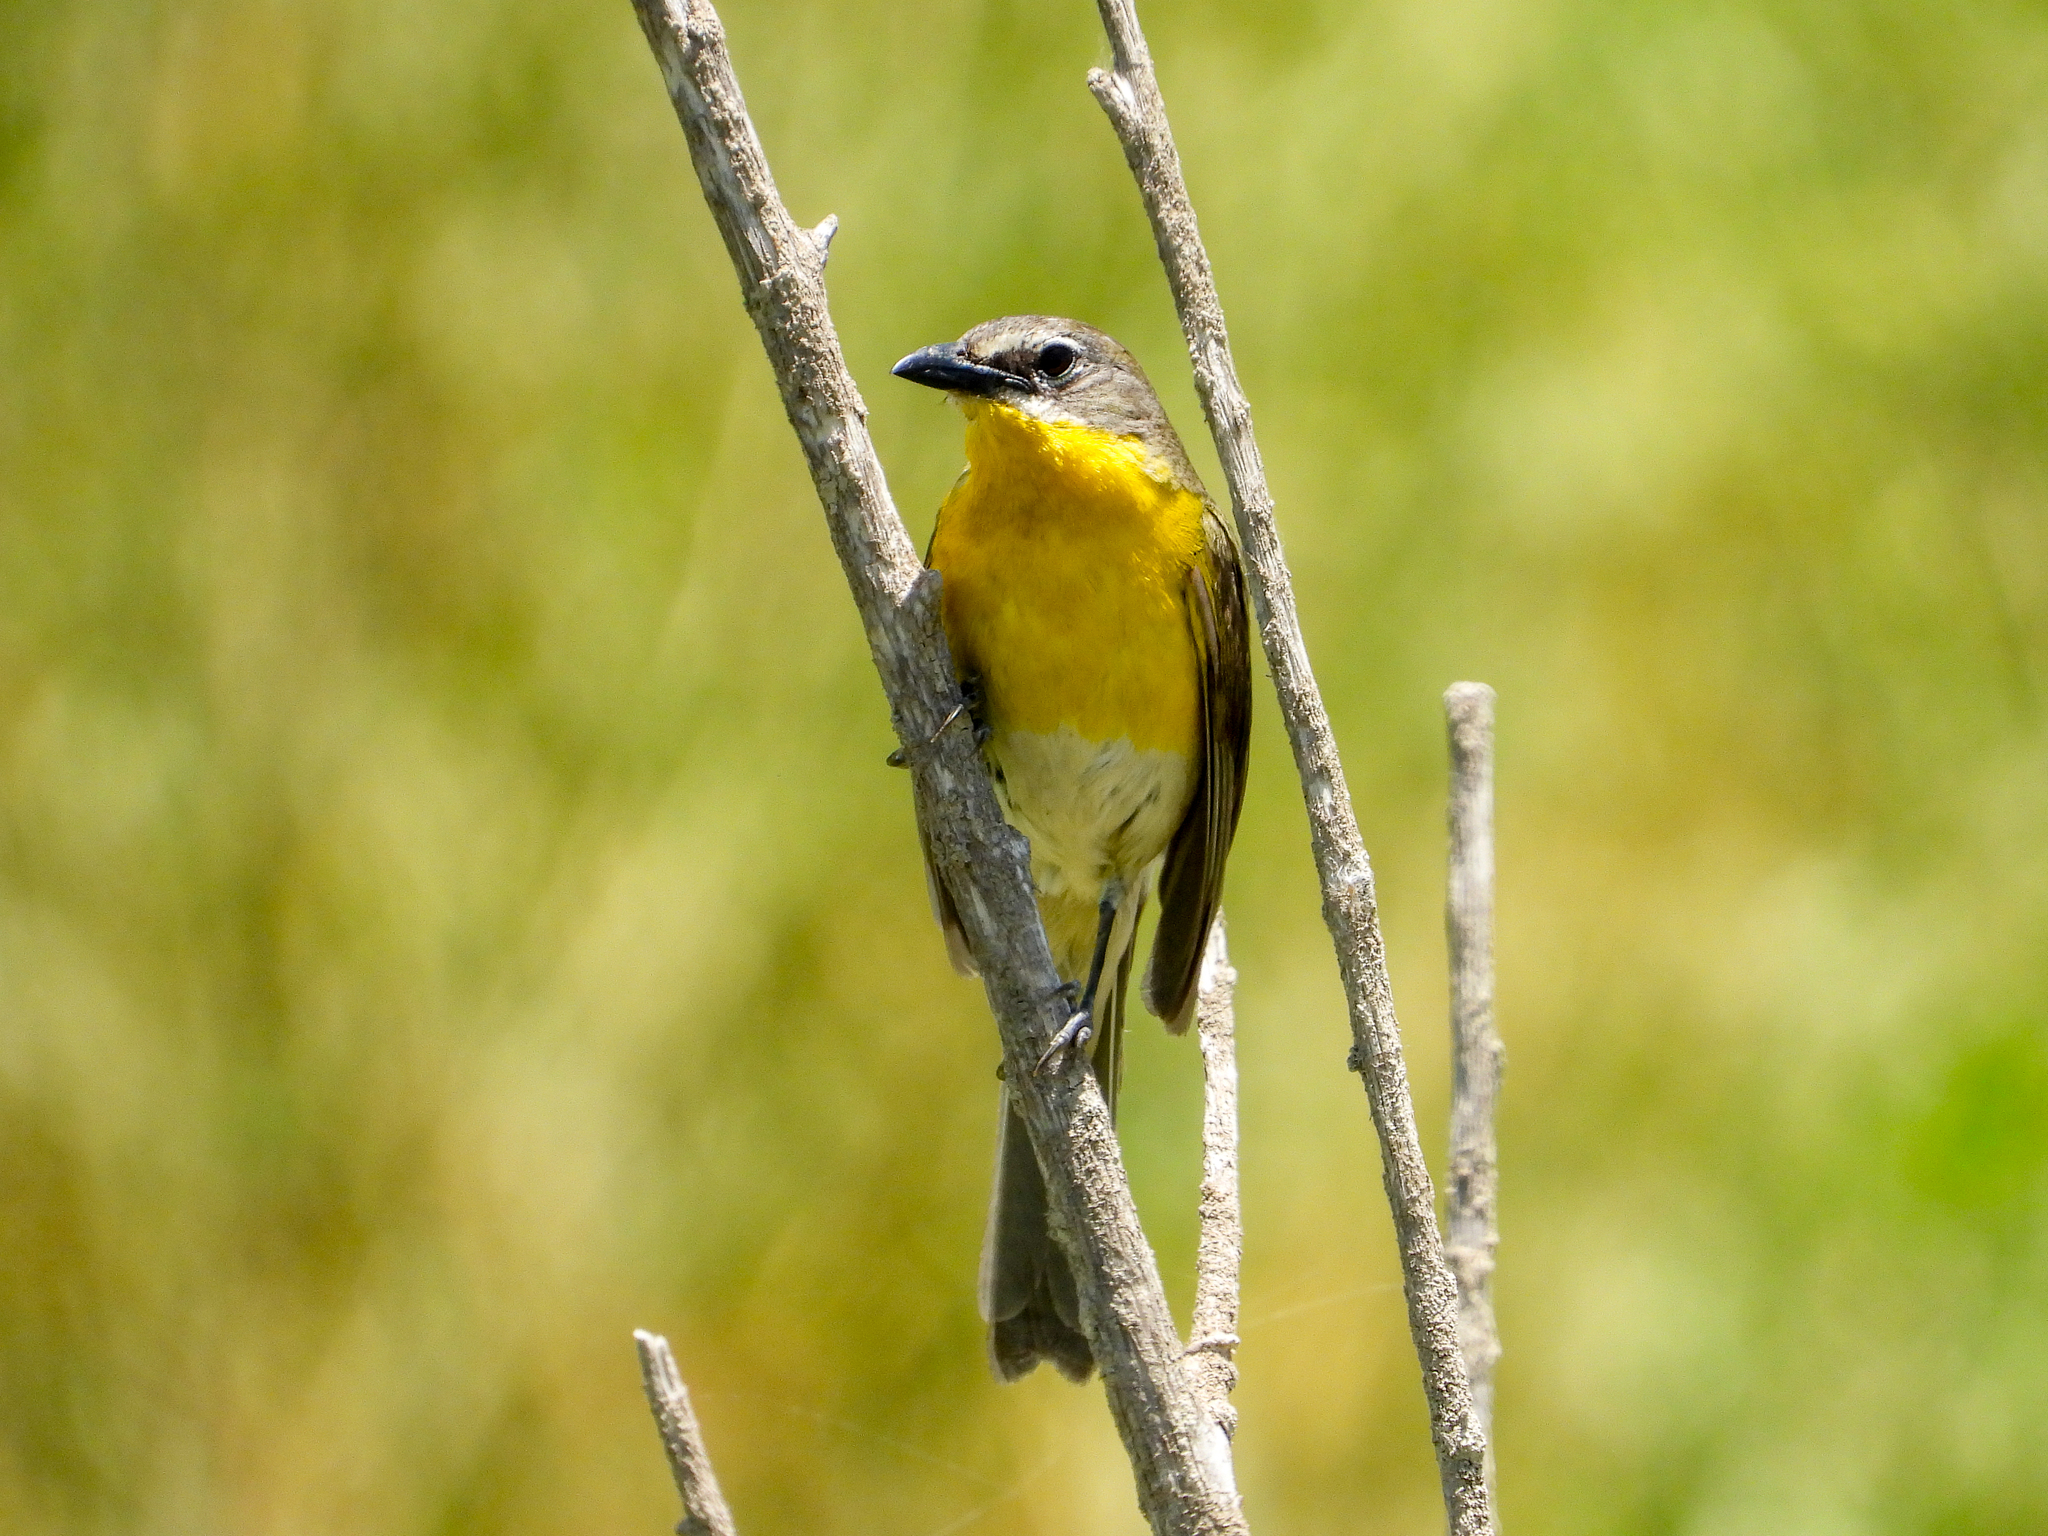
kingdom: Animalia
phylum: Chordata
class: Aves
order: Passeriformes
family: Parulidae
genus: Icteria
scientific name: Icteria virens
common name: Yellow-breasted chat
